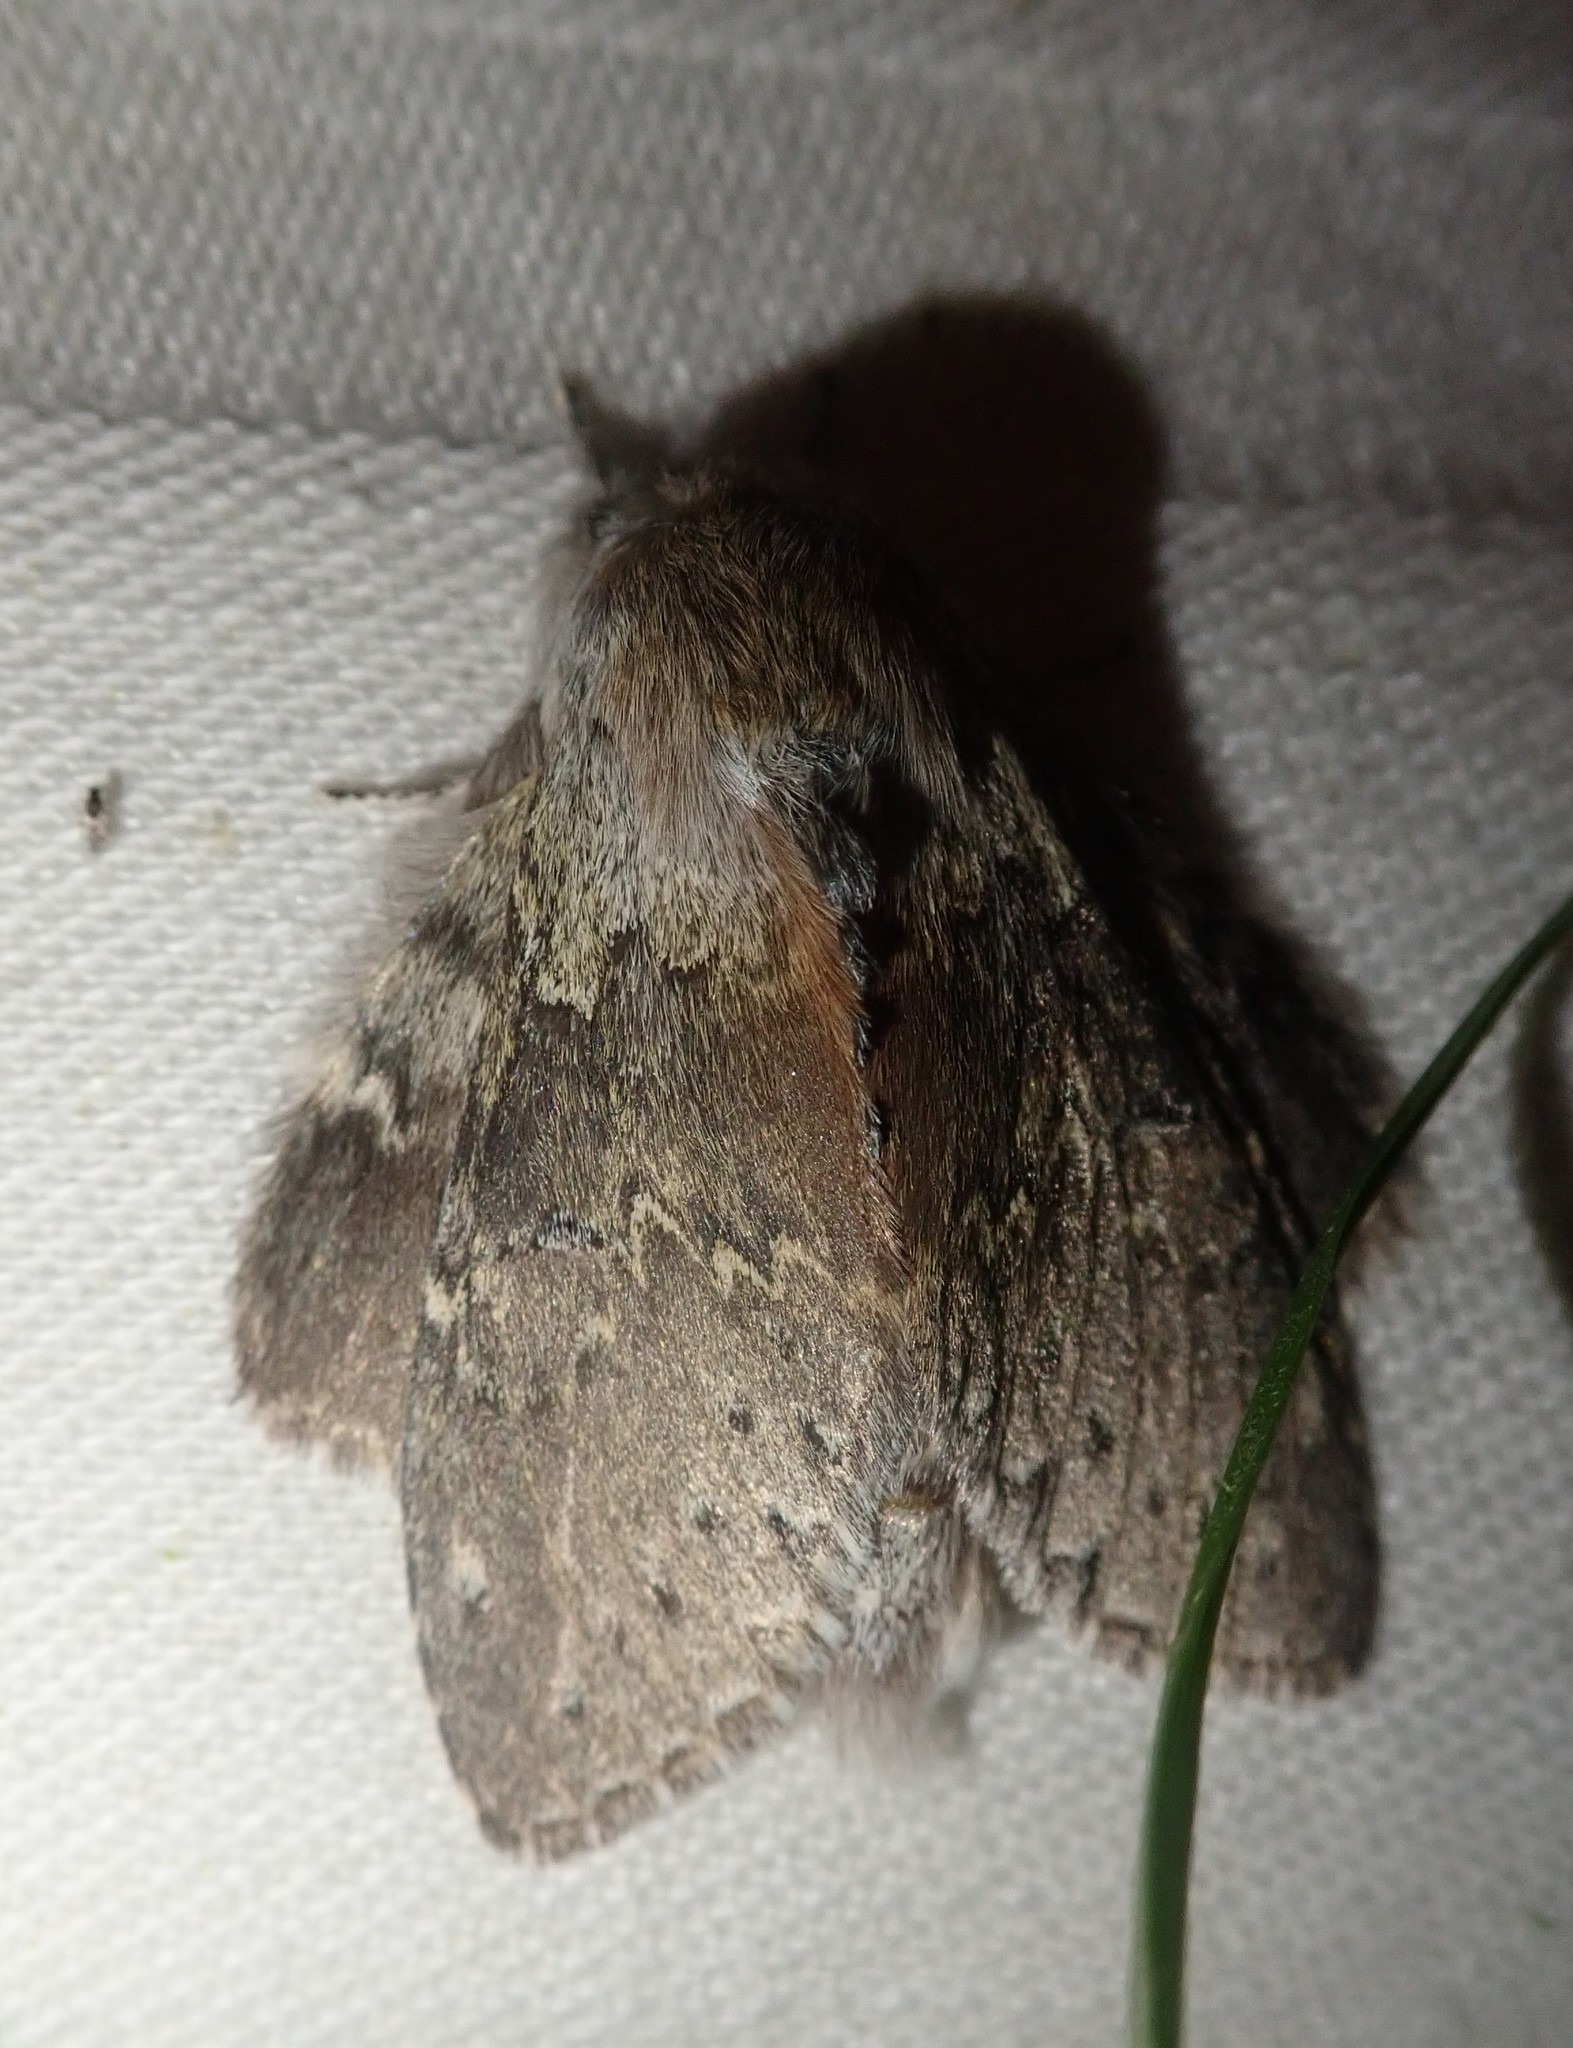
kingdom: Animalia
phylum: Arthropoda
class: Insecta
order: Lepidoptera
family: Notodontidae
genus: Stauropus
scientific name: Stauropus fagi
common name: Lobster moth
